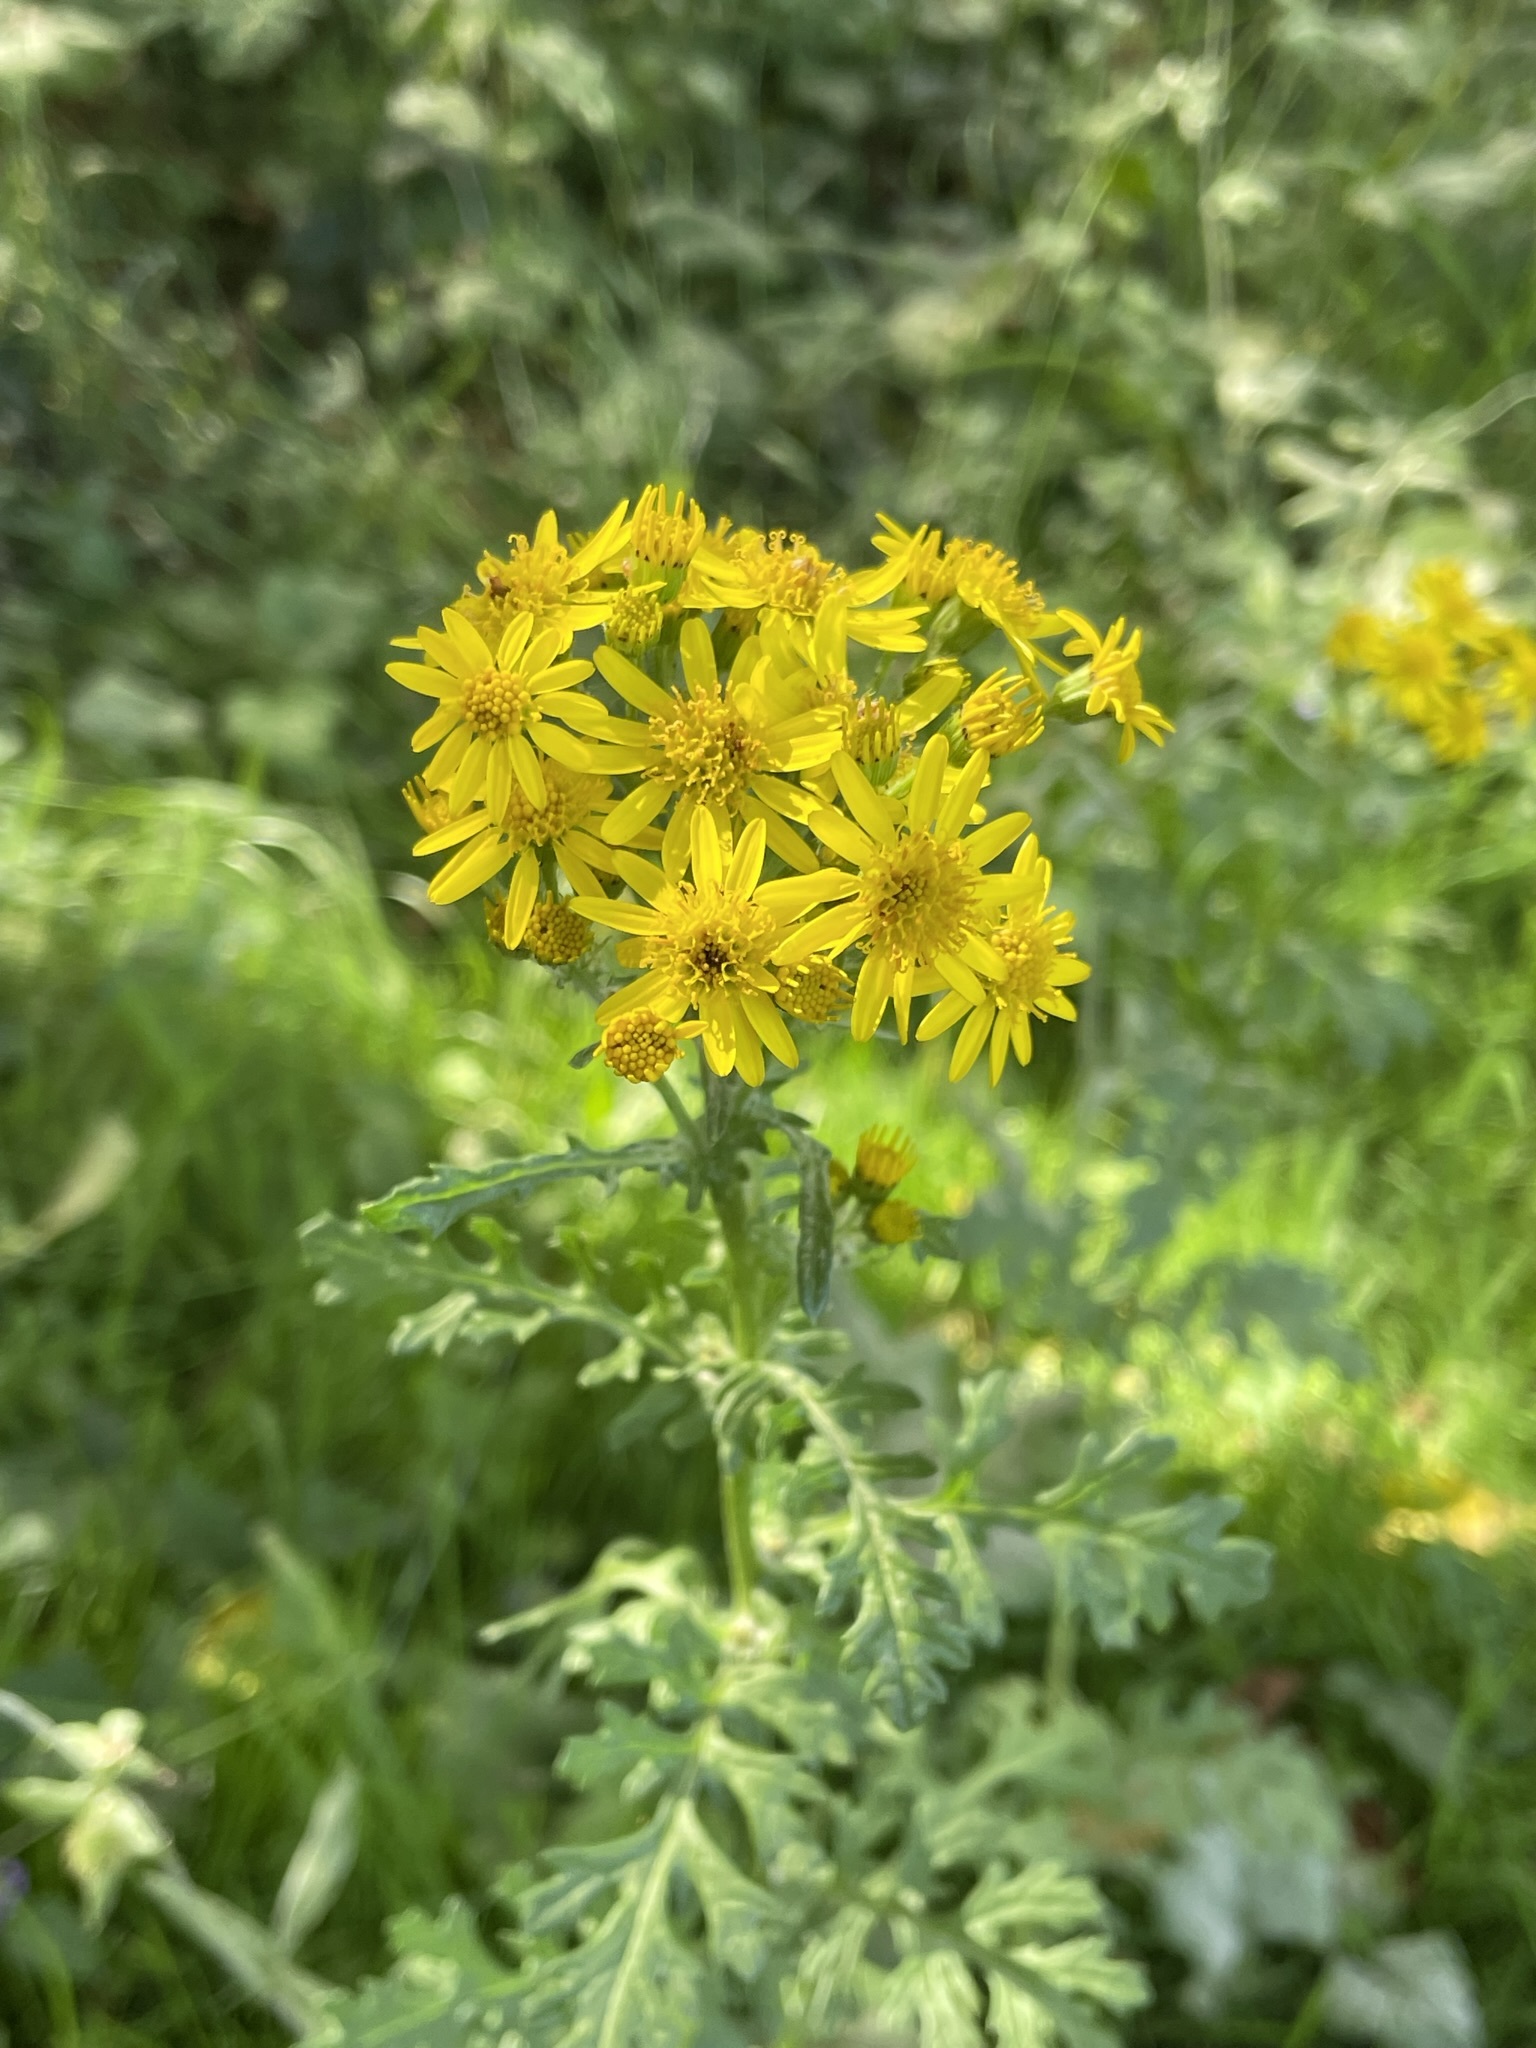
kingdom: Plantae
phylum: Tracheophyta
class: Magnoliopsida
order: Asterales
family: Asteraceae
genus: Jacobaea
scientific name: Jacobaea vulgaris
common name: Stinking willie
